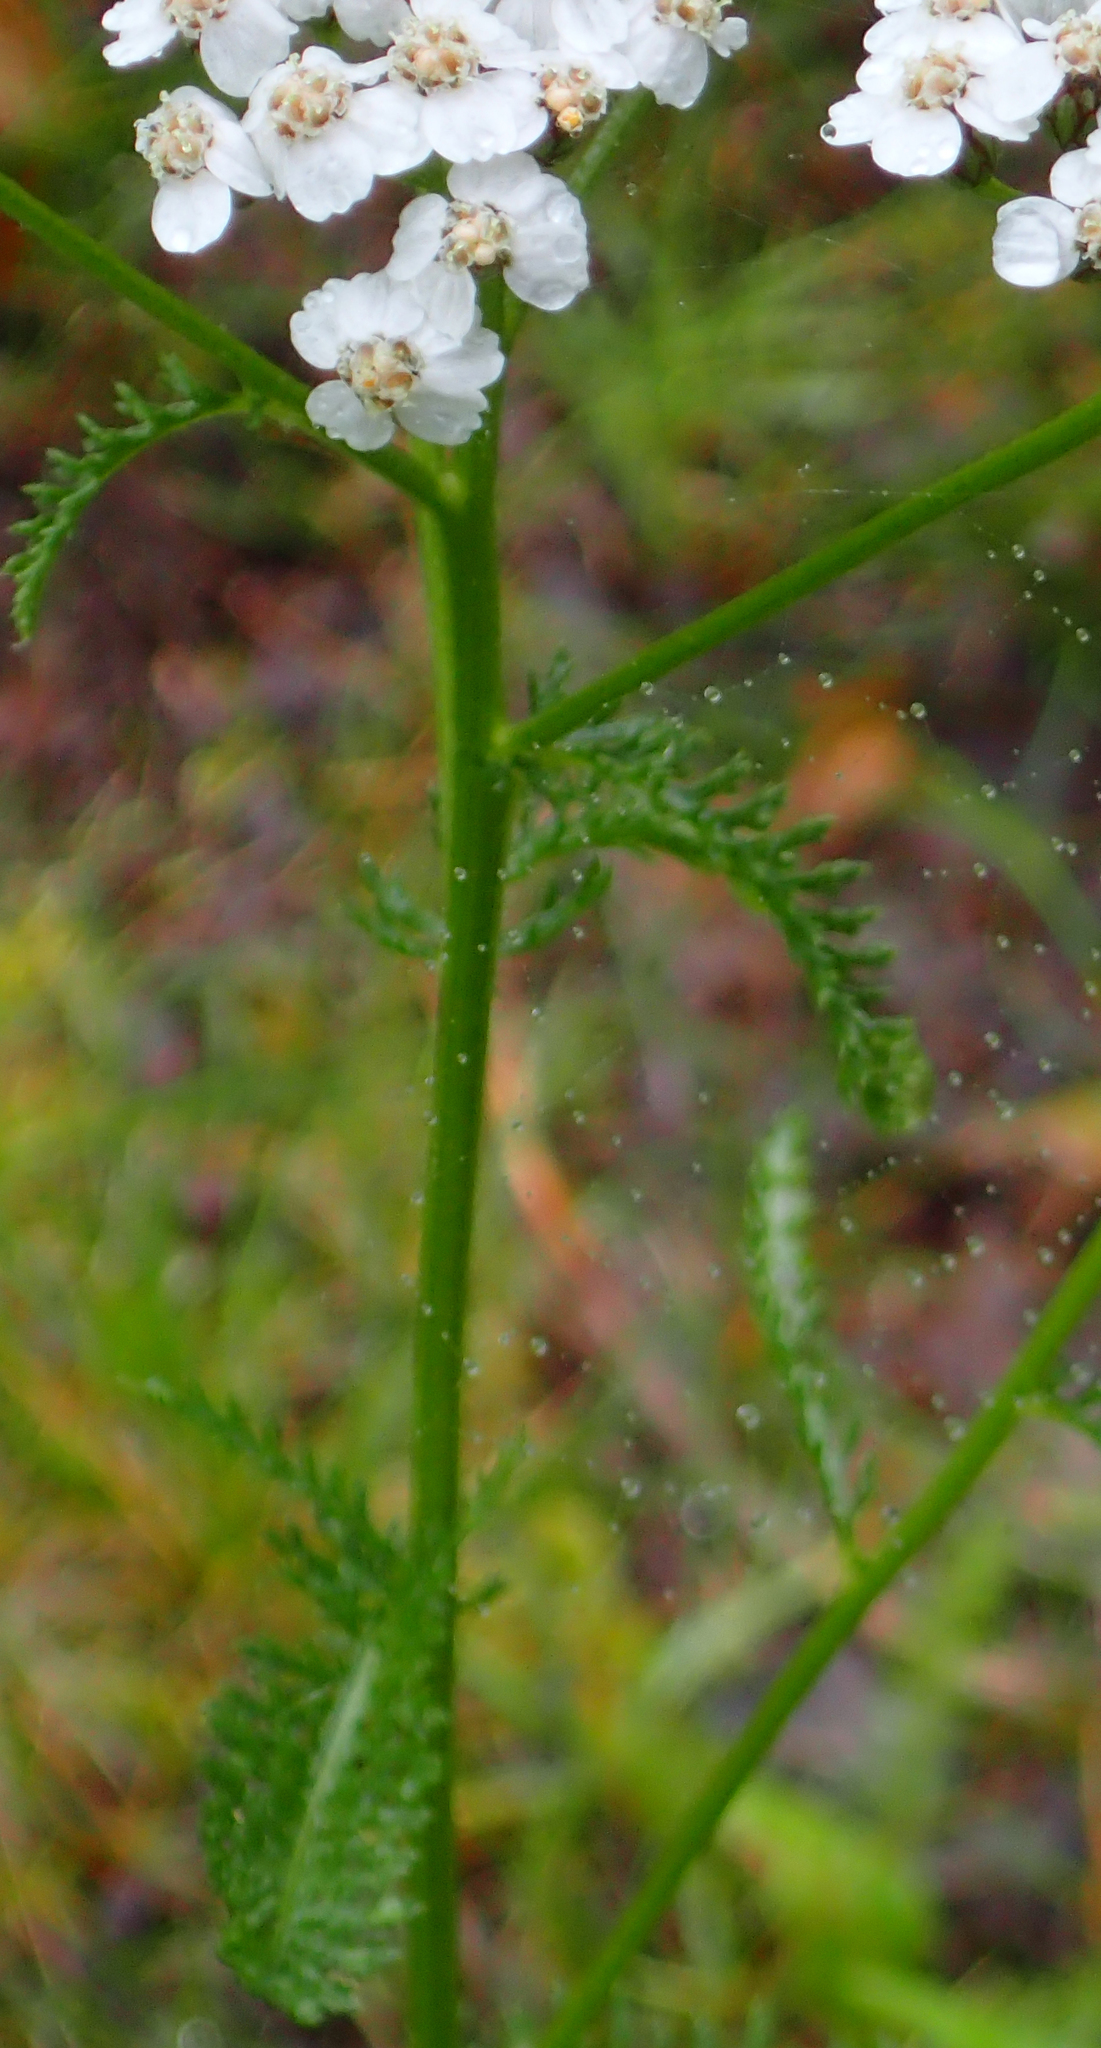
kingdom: Plantae
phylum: Tracheophyta
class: Magnoliopsida
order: Asterales
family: Asteraceae
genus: Achillea
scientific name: Achillea millefolium
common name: Yarrow
